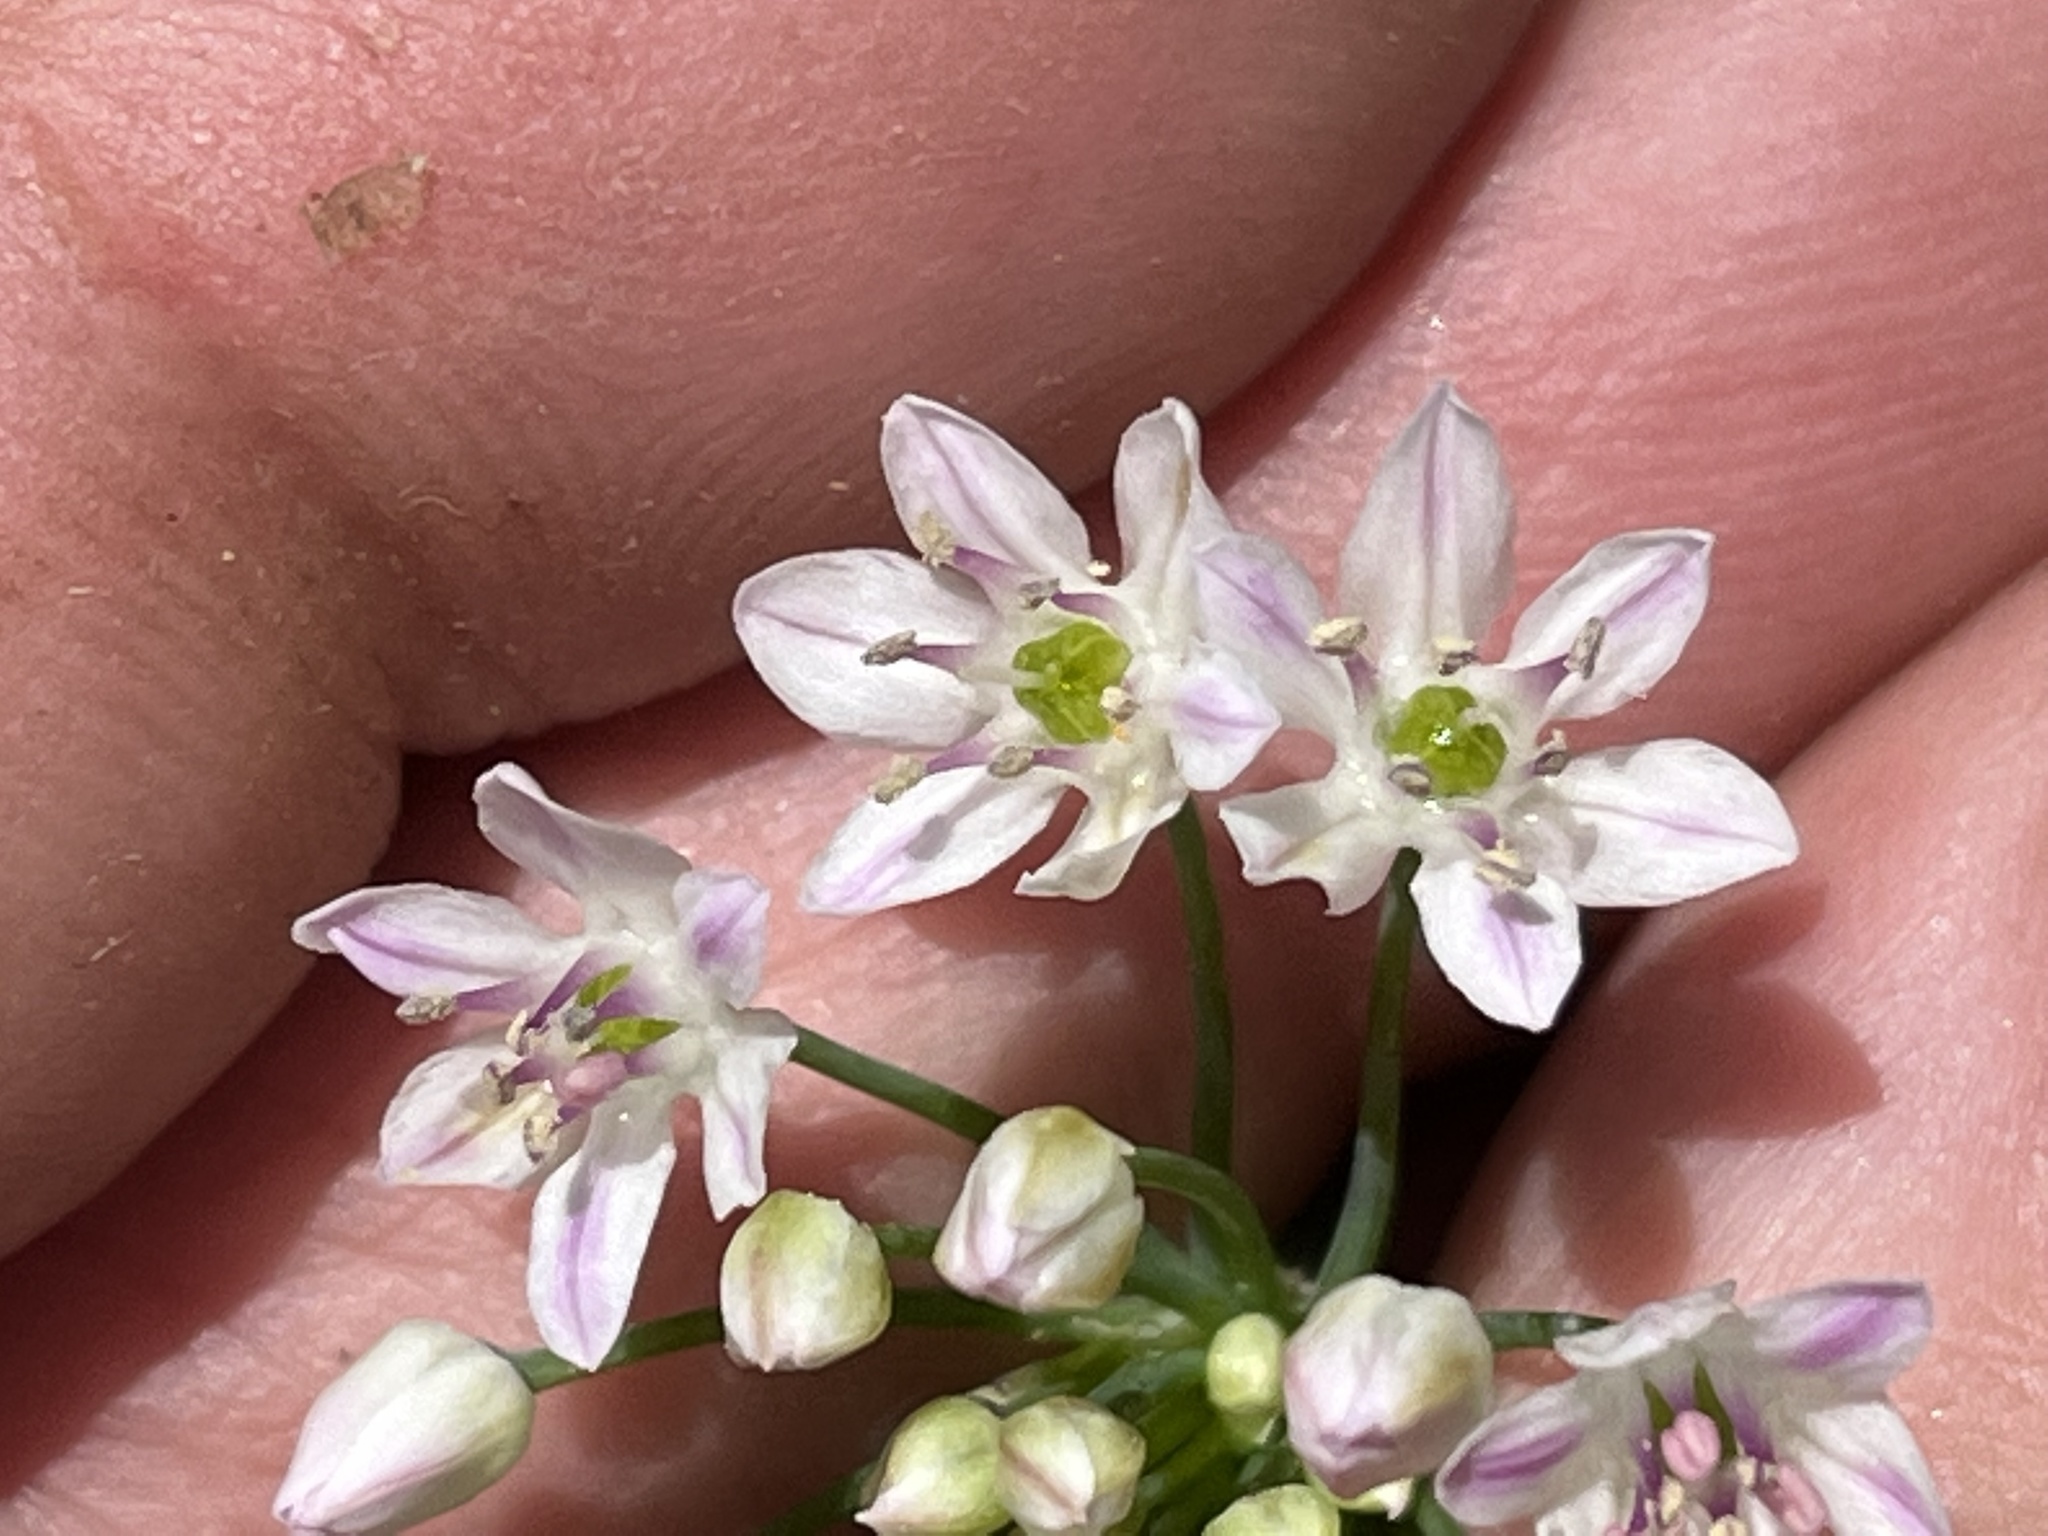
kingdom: Plantae
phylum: Tracheophyta
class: Liliopsida
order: Asparagales
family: Amaryllidaceae
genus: Allium
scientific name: Allium canadense
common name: Meadow garlic
